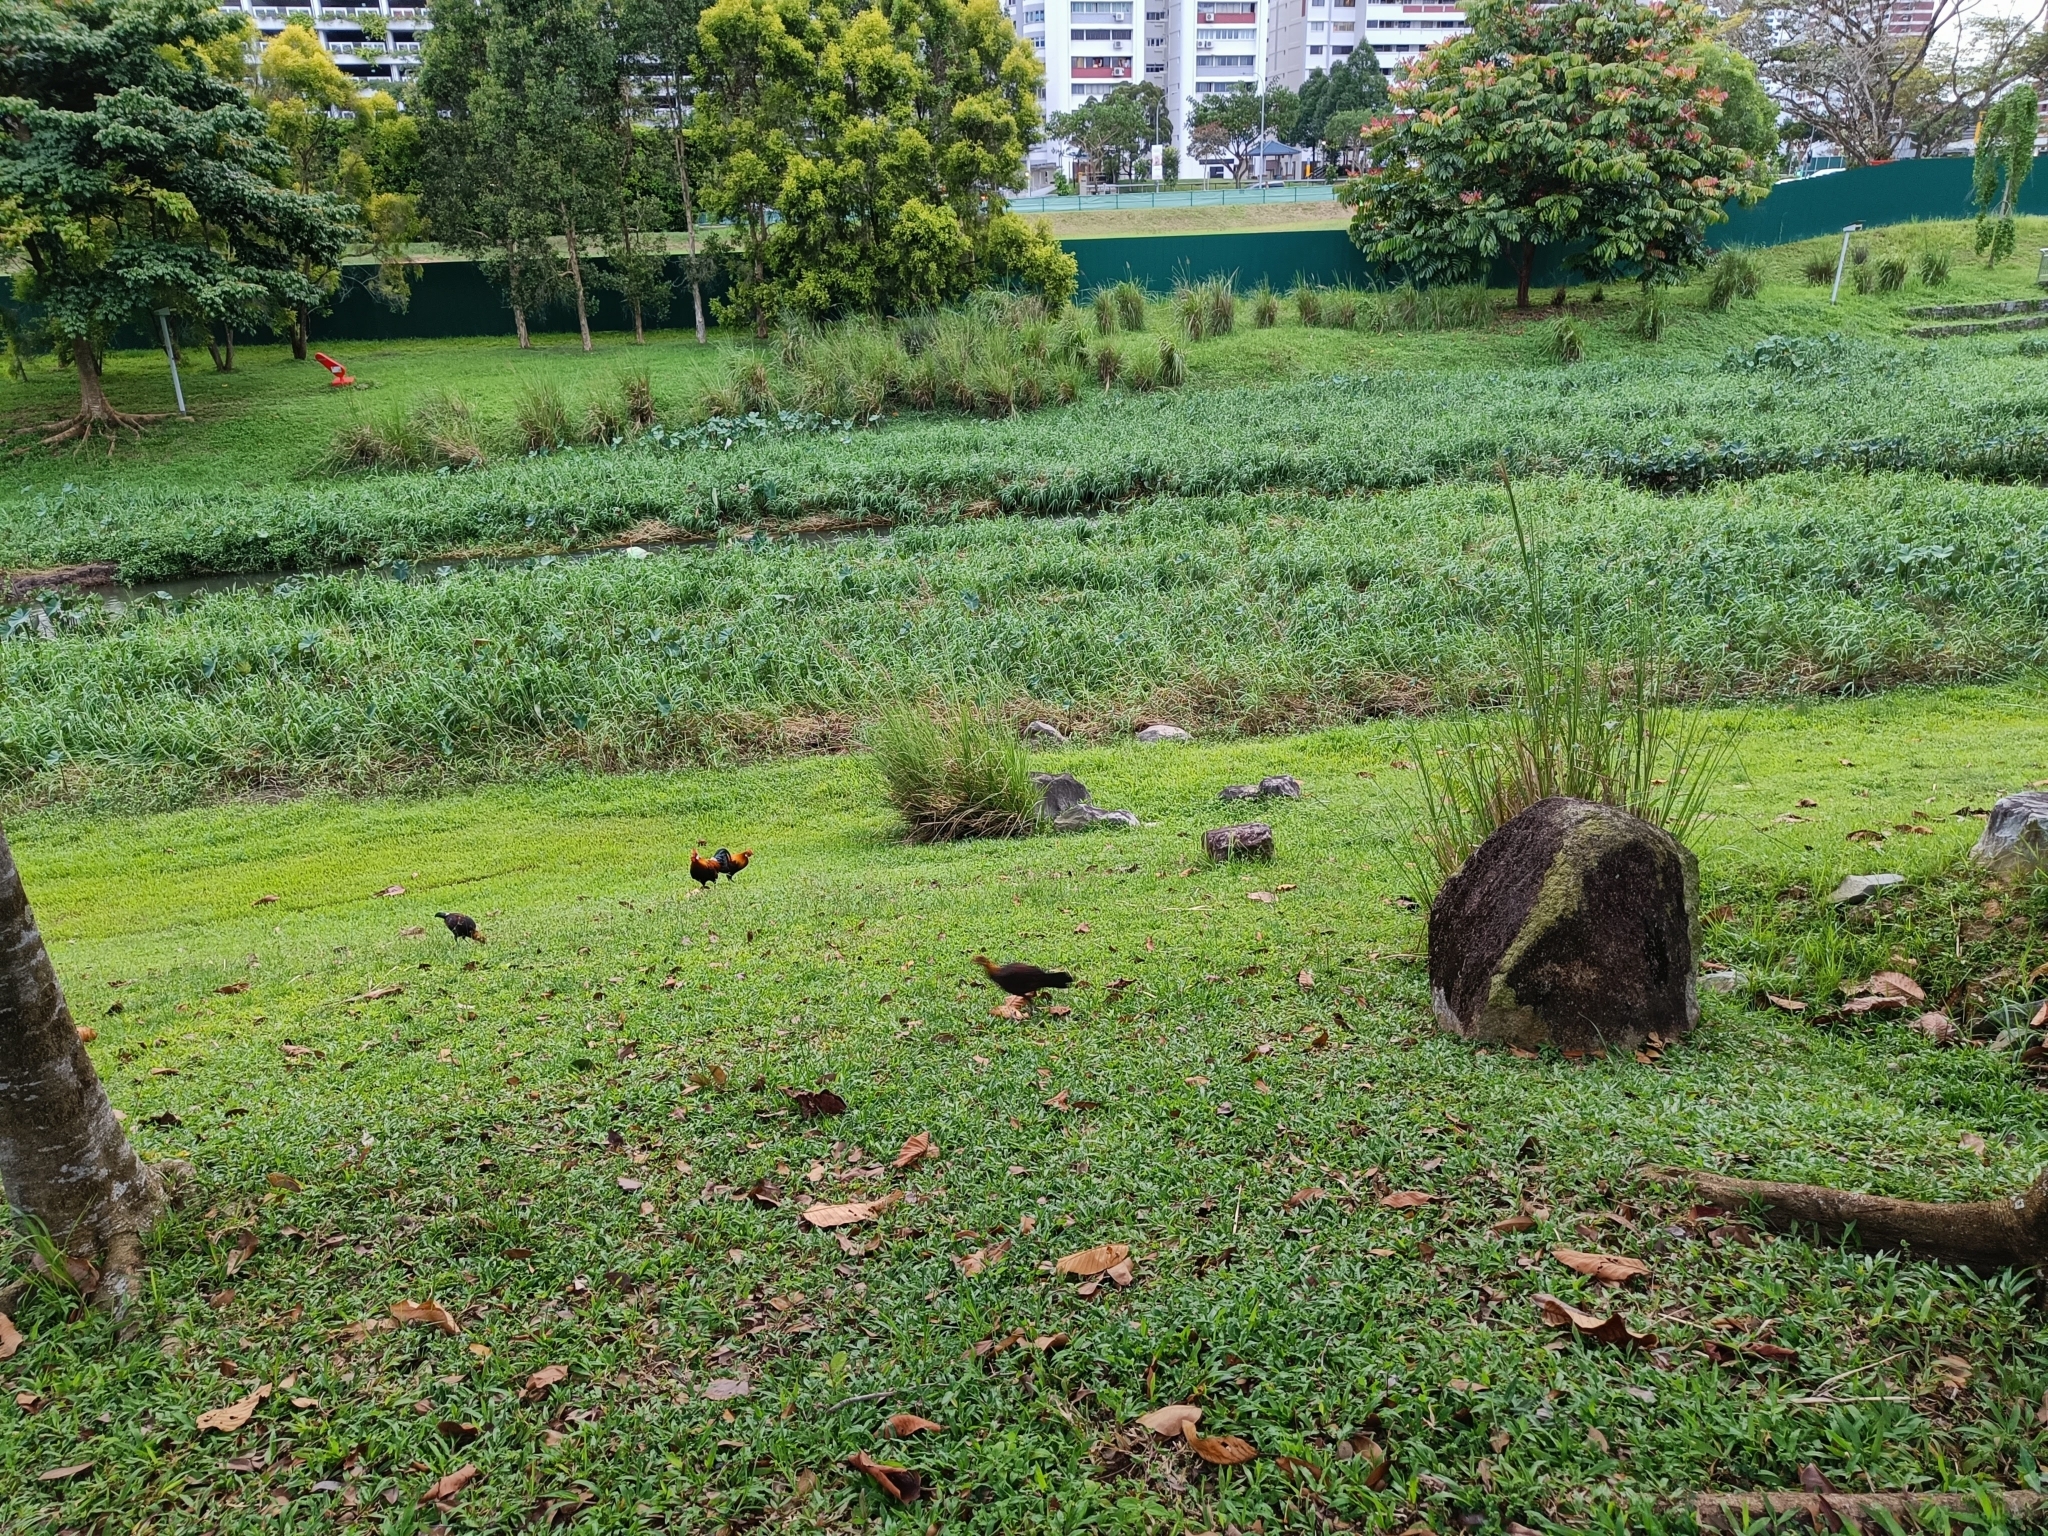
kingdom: Animalia
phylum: Chordata
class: Aves
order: Galliformes
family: Phasianidae
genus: Gallus
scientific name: Gallus gallus
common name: Red junglefowl
